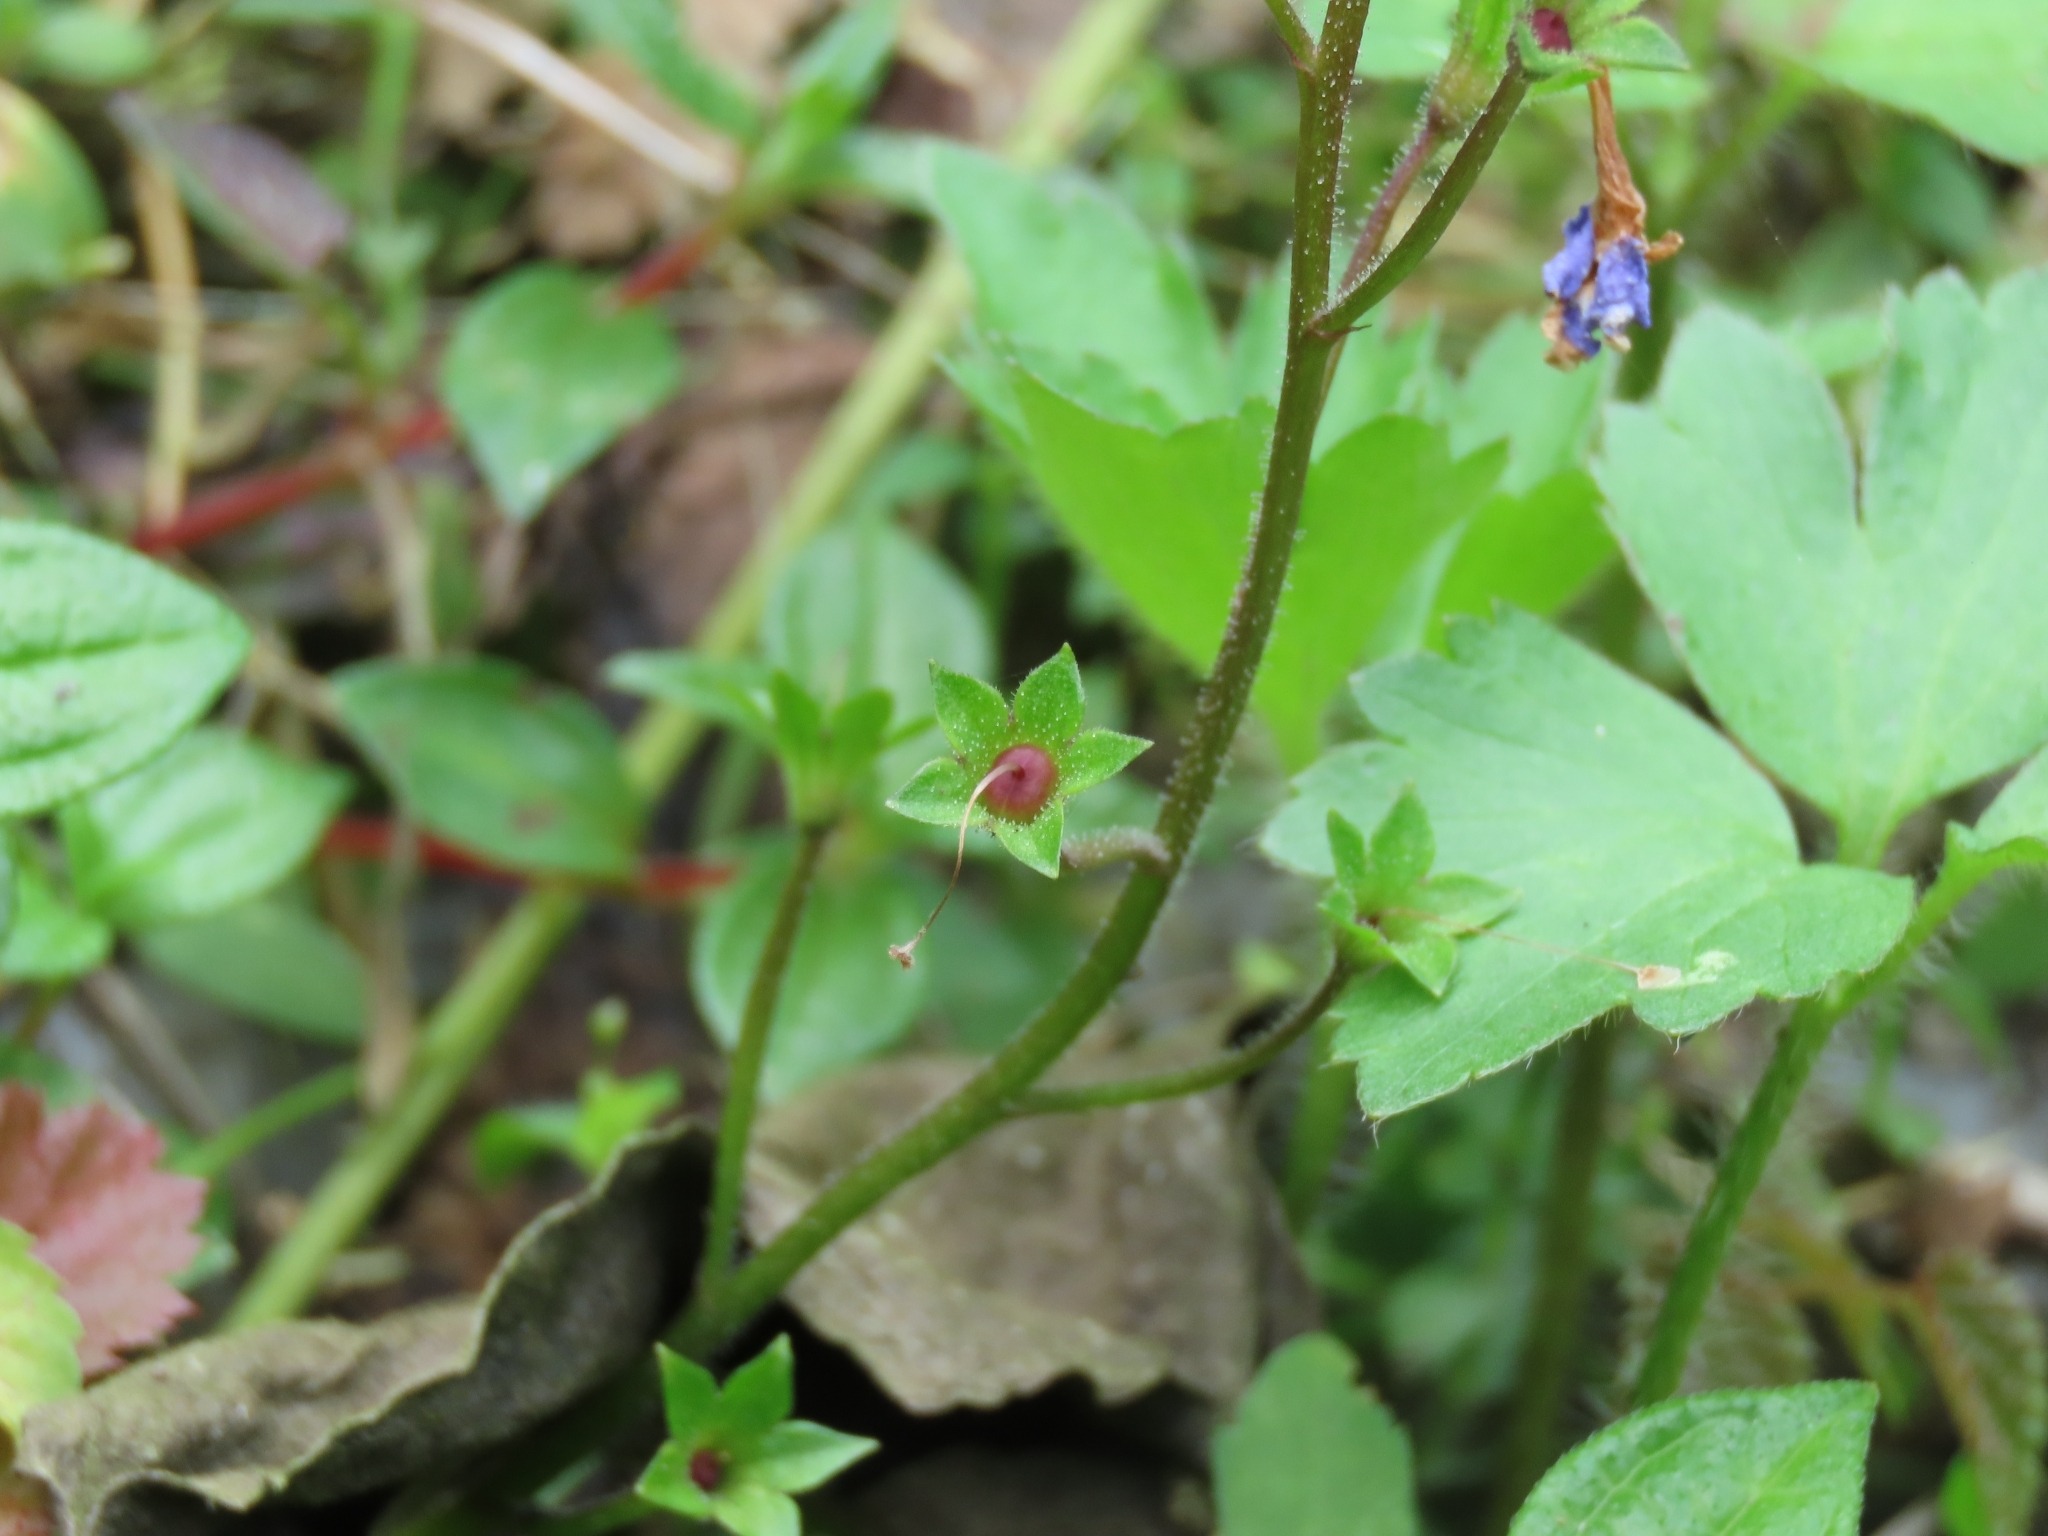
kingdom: Plantae
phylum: Tracheophyta
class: Magnoliopsida
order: Lamiales
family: Mazaceae
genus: Mazus
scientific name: Mazus fauriei
